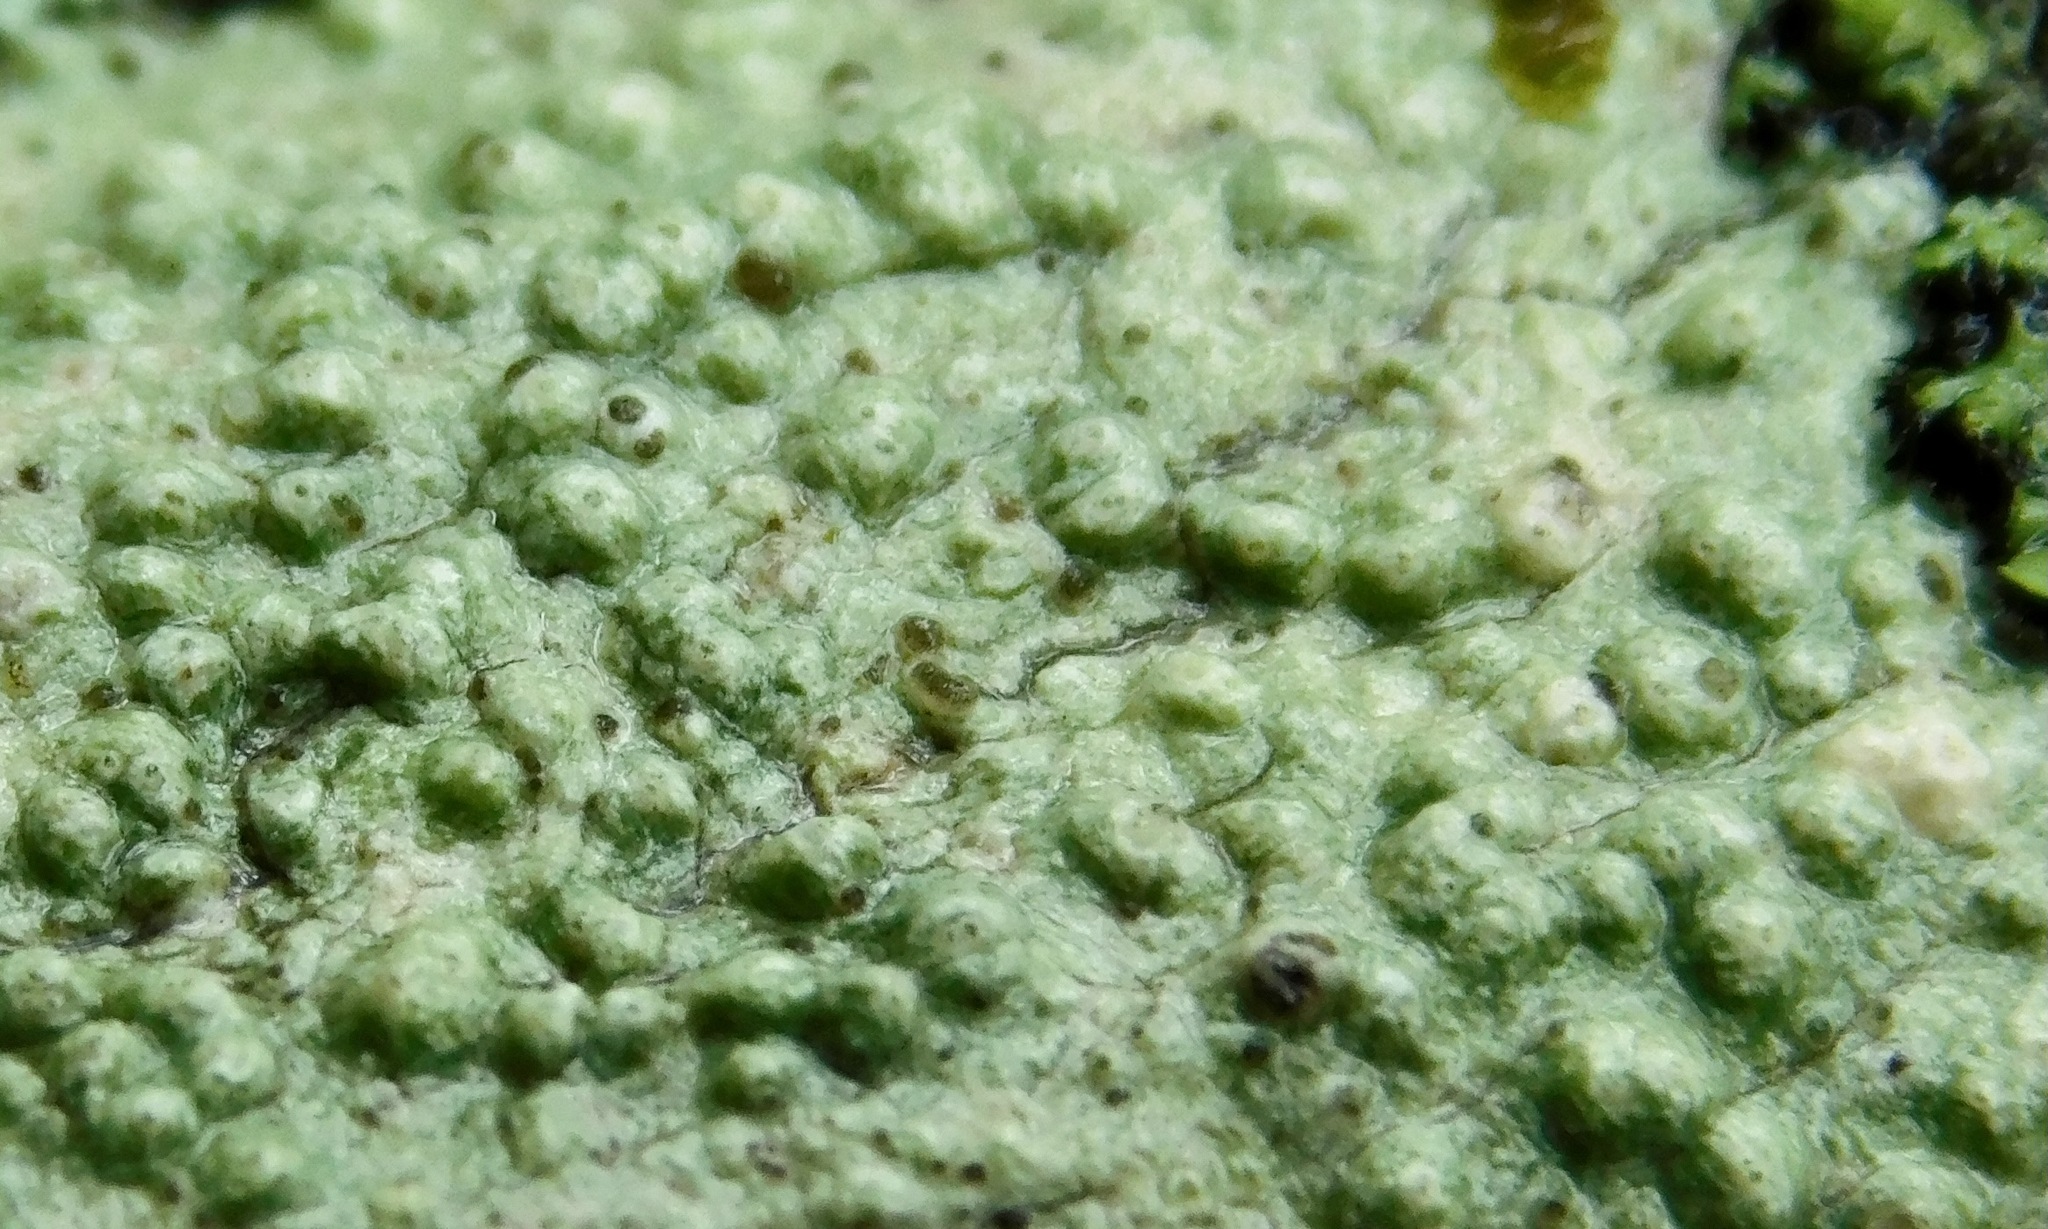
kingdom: Fungi
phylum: Ascomycota
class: Lecanoromycetes
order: Pertusariales
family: Pertusariaceae
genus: Pertusaria
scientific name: Pertusaria macounii
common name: Macoun's wart lichen
